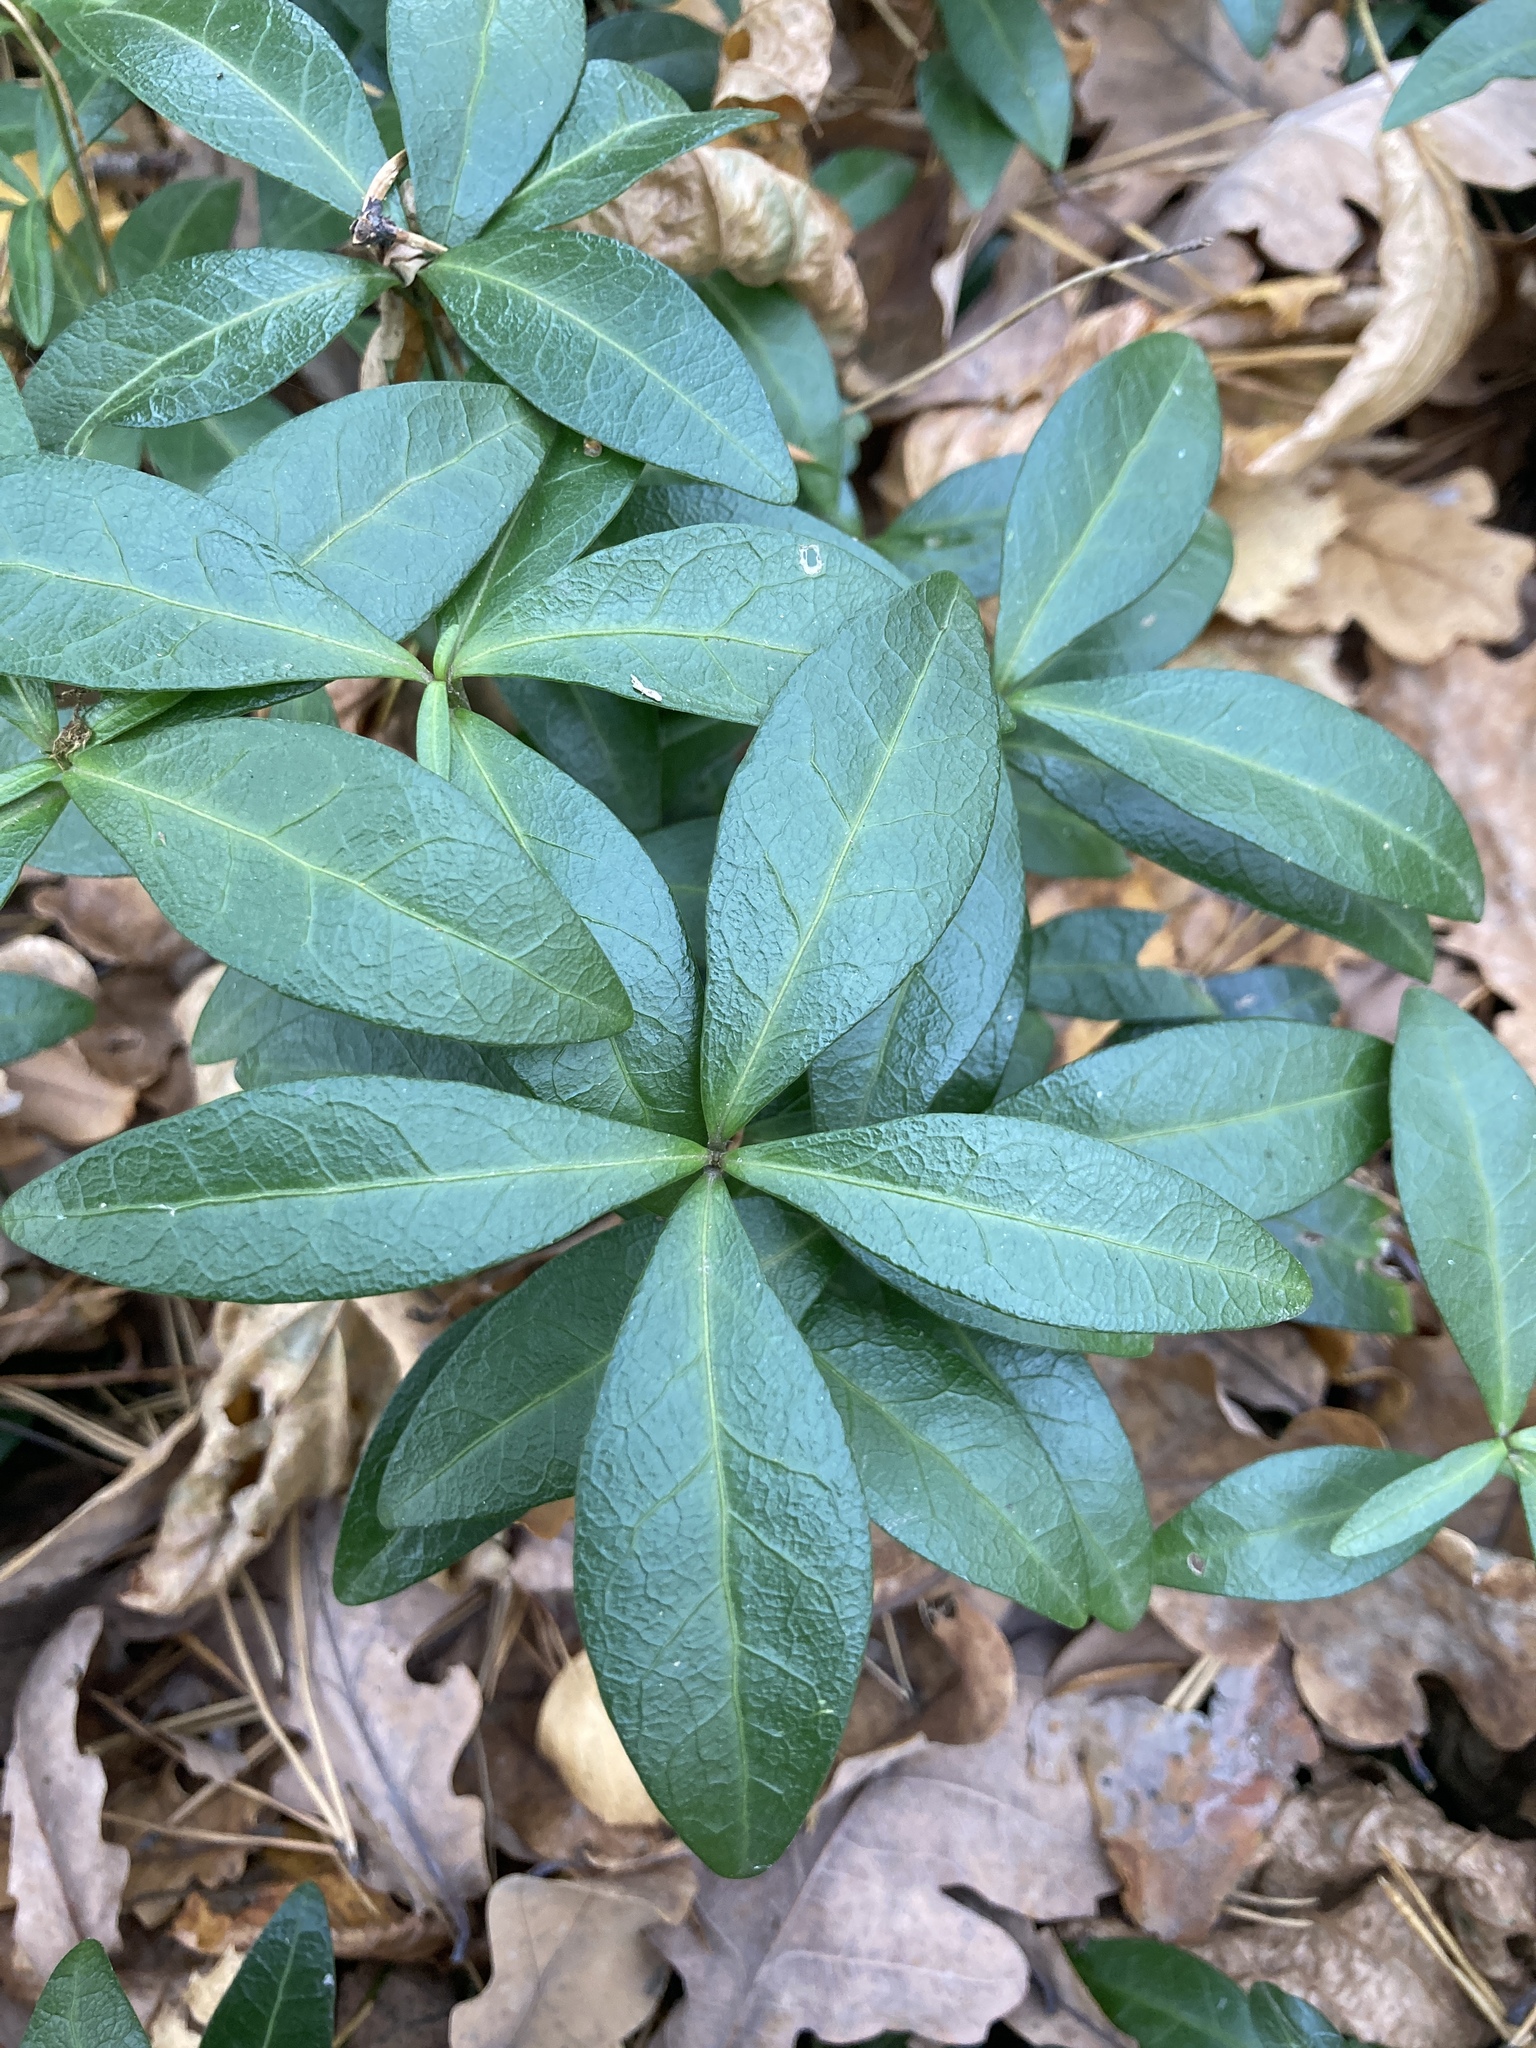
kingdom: Plantae
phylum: Tracheophyta
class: Magnoliopsida
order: Gentianales
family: Apocynaceae
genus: Vinca
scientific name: Vinca minor
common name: Lesser periwinkle
